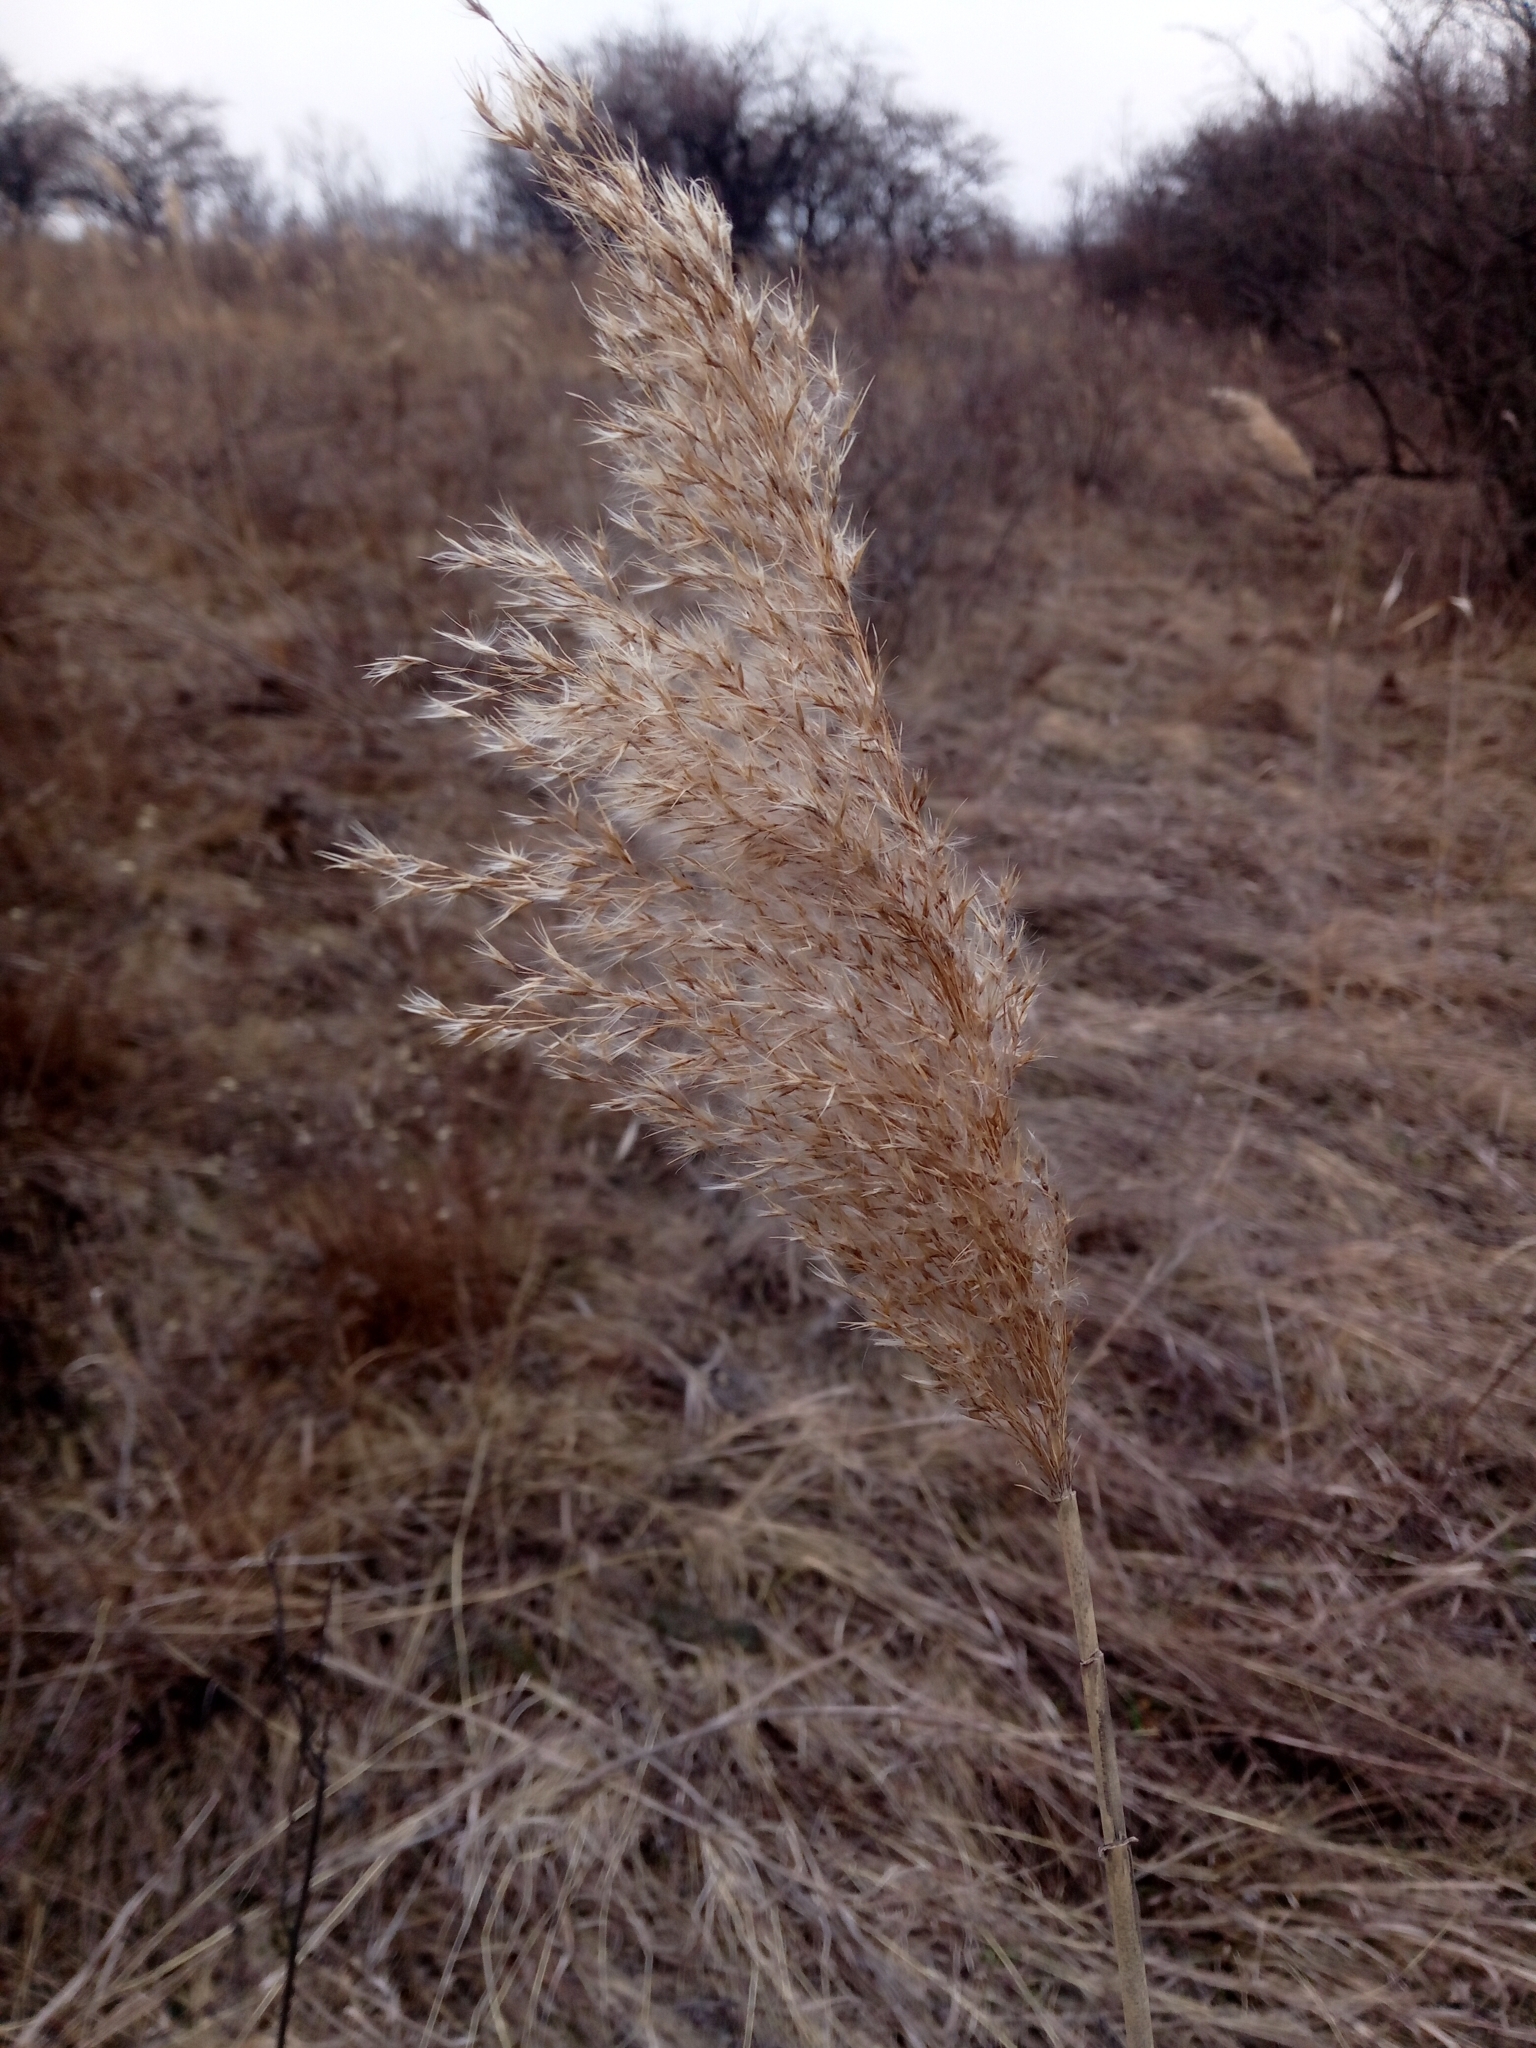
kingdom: Plantae
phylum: Tracheophyta
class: Liliopsida
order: Poales
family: Poaceae
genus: Phragmites
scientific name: Phragmites australis
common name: Common reed
